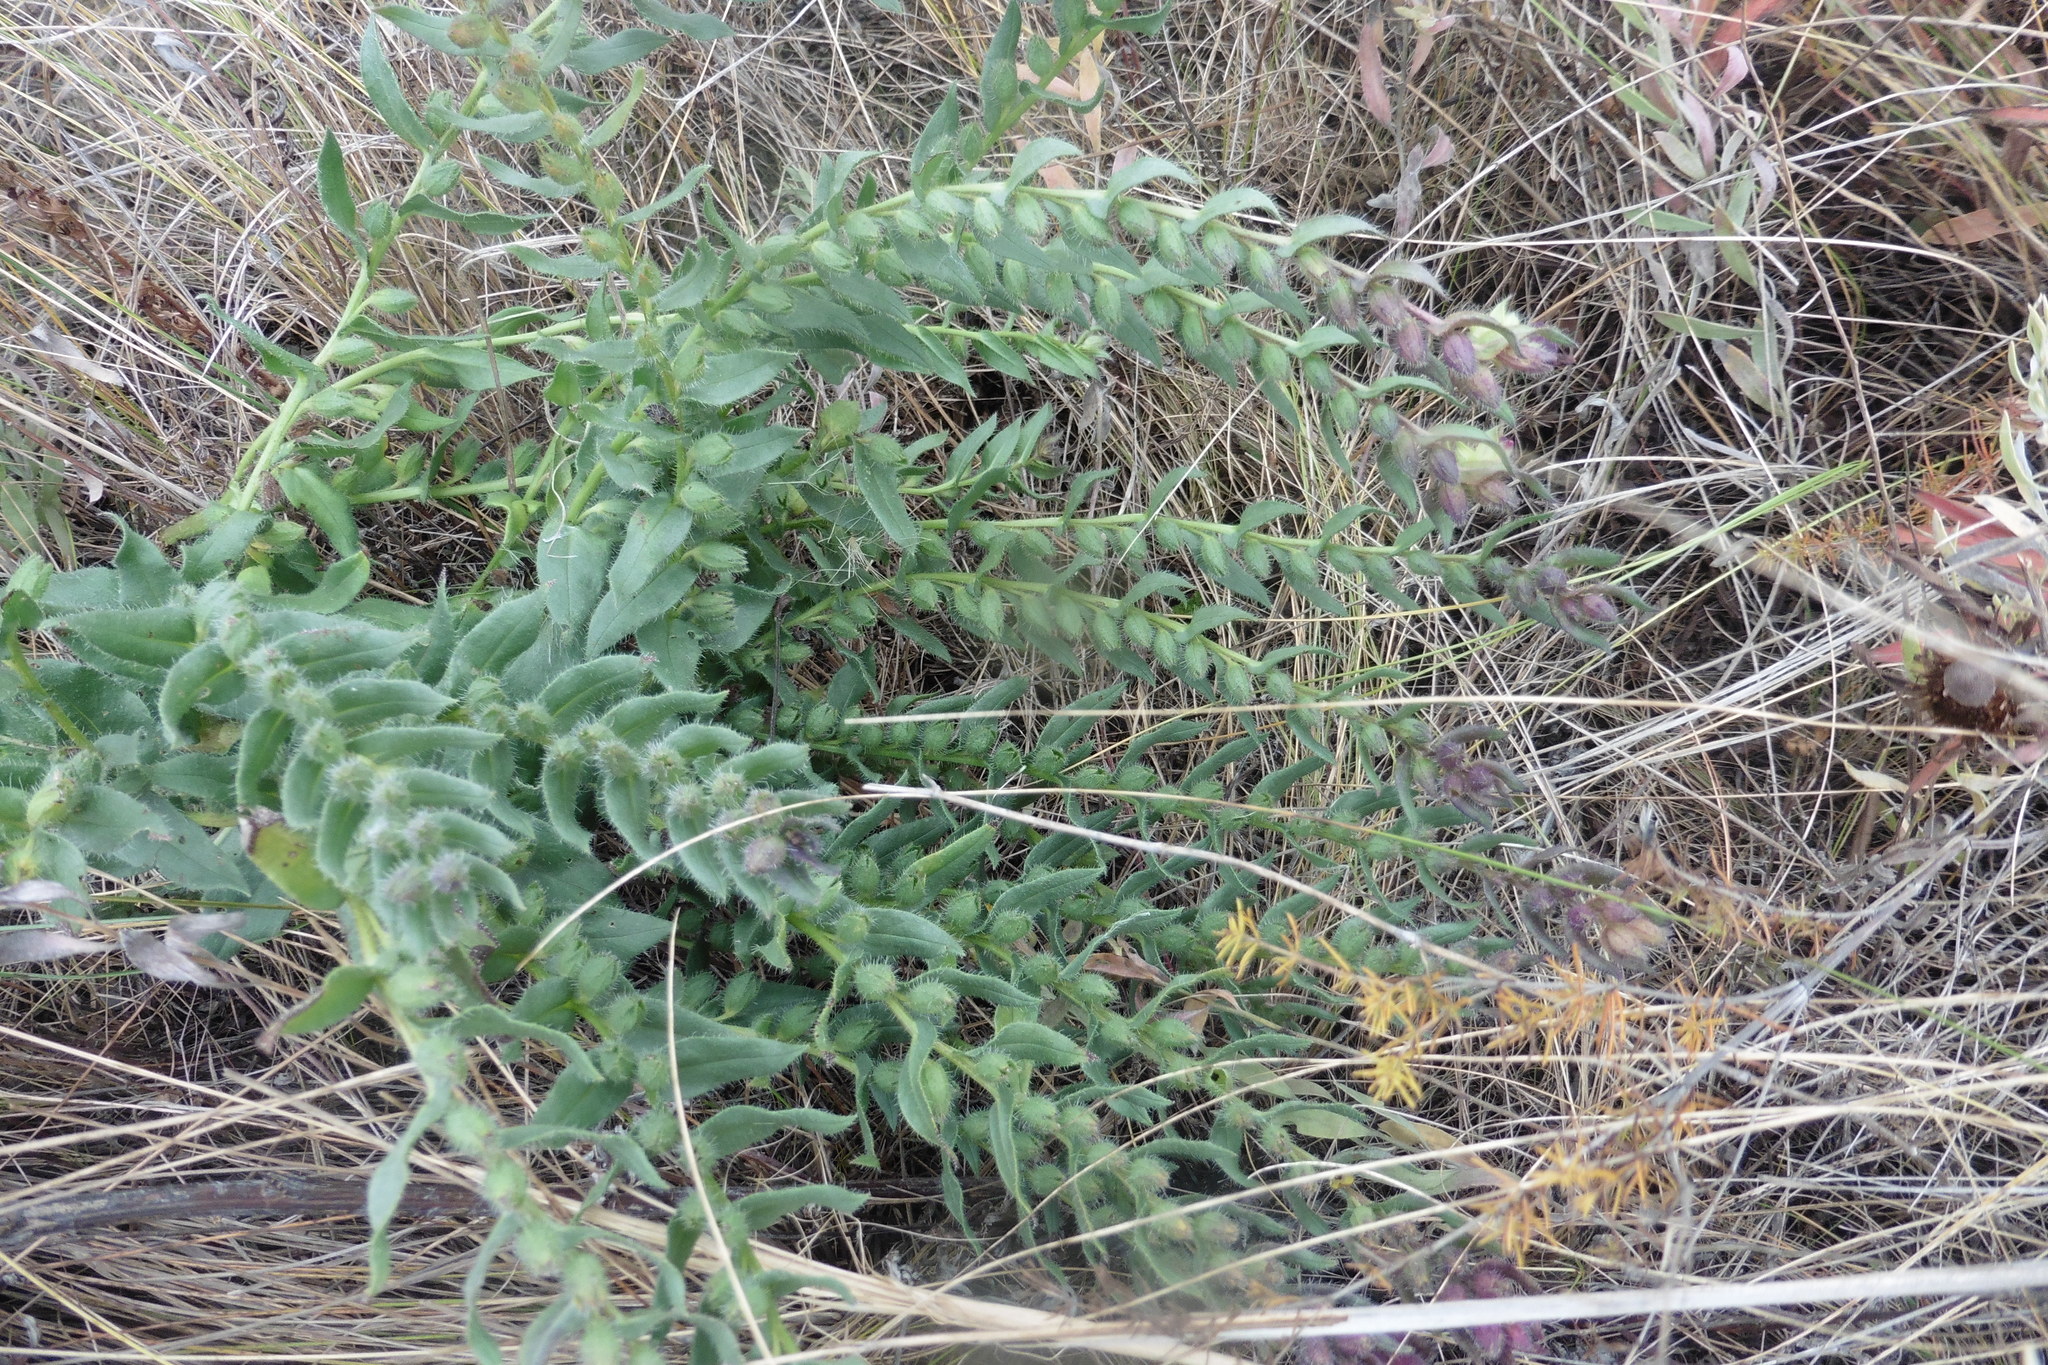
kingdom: Plantae
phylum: Tracheophyta
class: Magnoliopsida
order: Boraginales
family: Boraginaceae
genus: Nonea
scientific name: Nonea pulla
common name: Brown nonea
